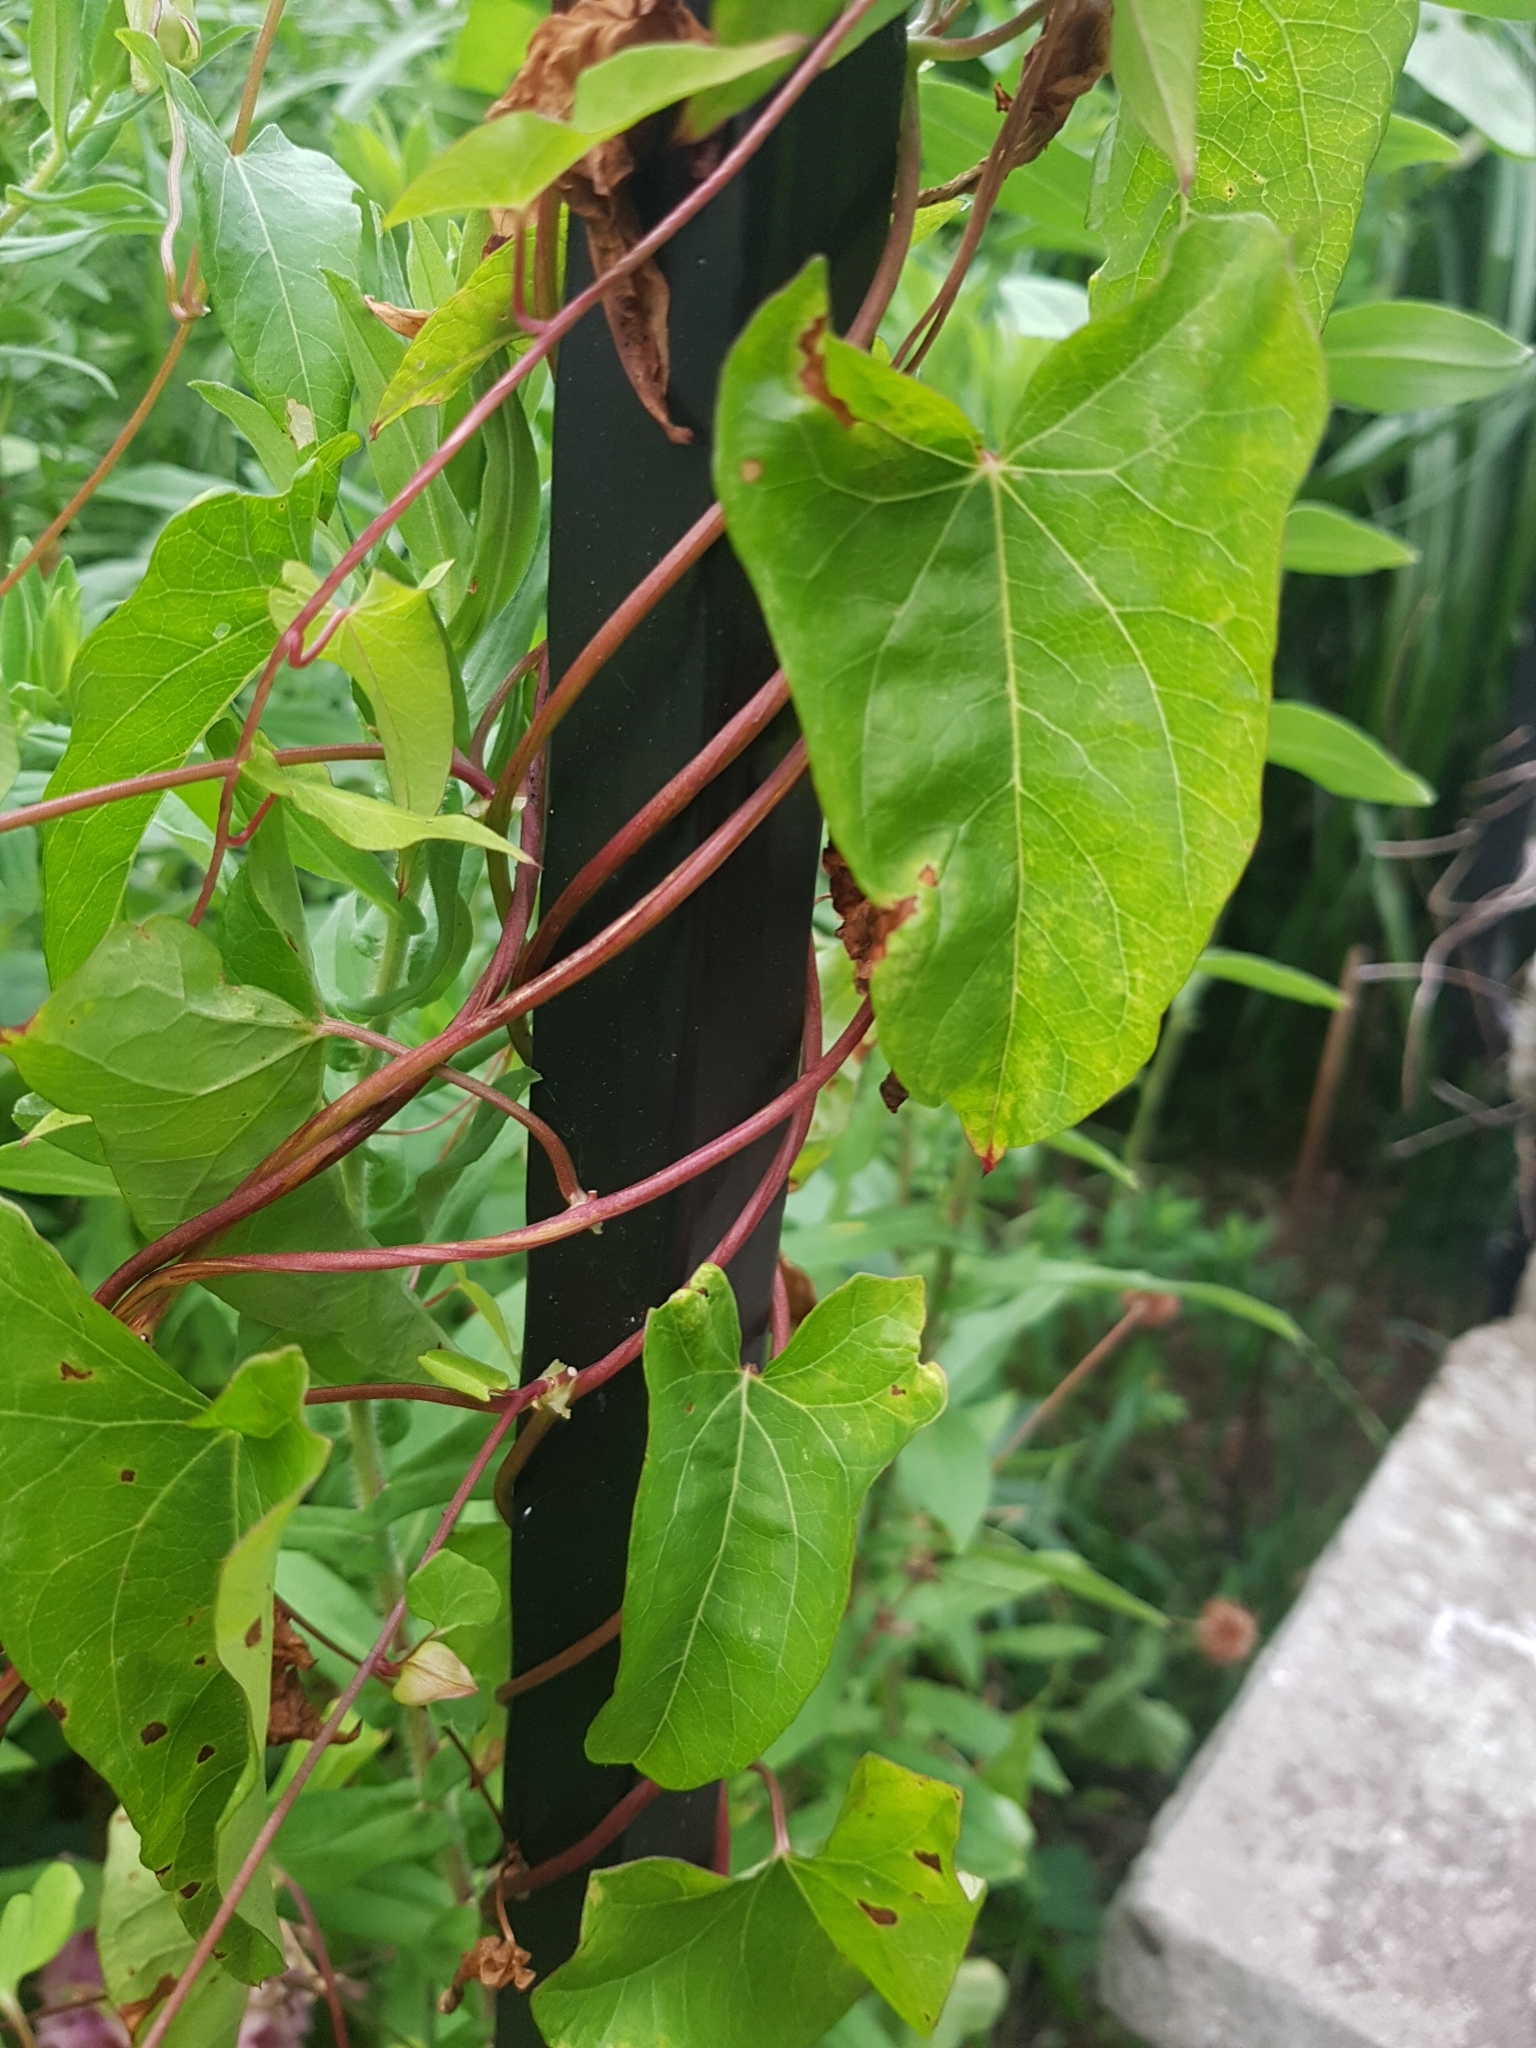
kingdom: Plantae
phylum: Tracheophyta
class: Magnoliopsida
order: Solanales
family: Convolvulaceae
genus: Calystegia
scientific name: Calystegia sepium
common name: Hedge bindweed
